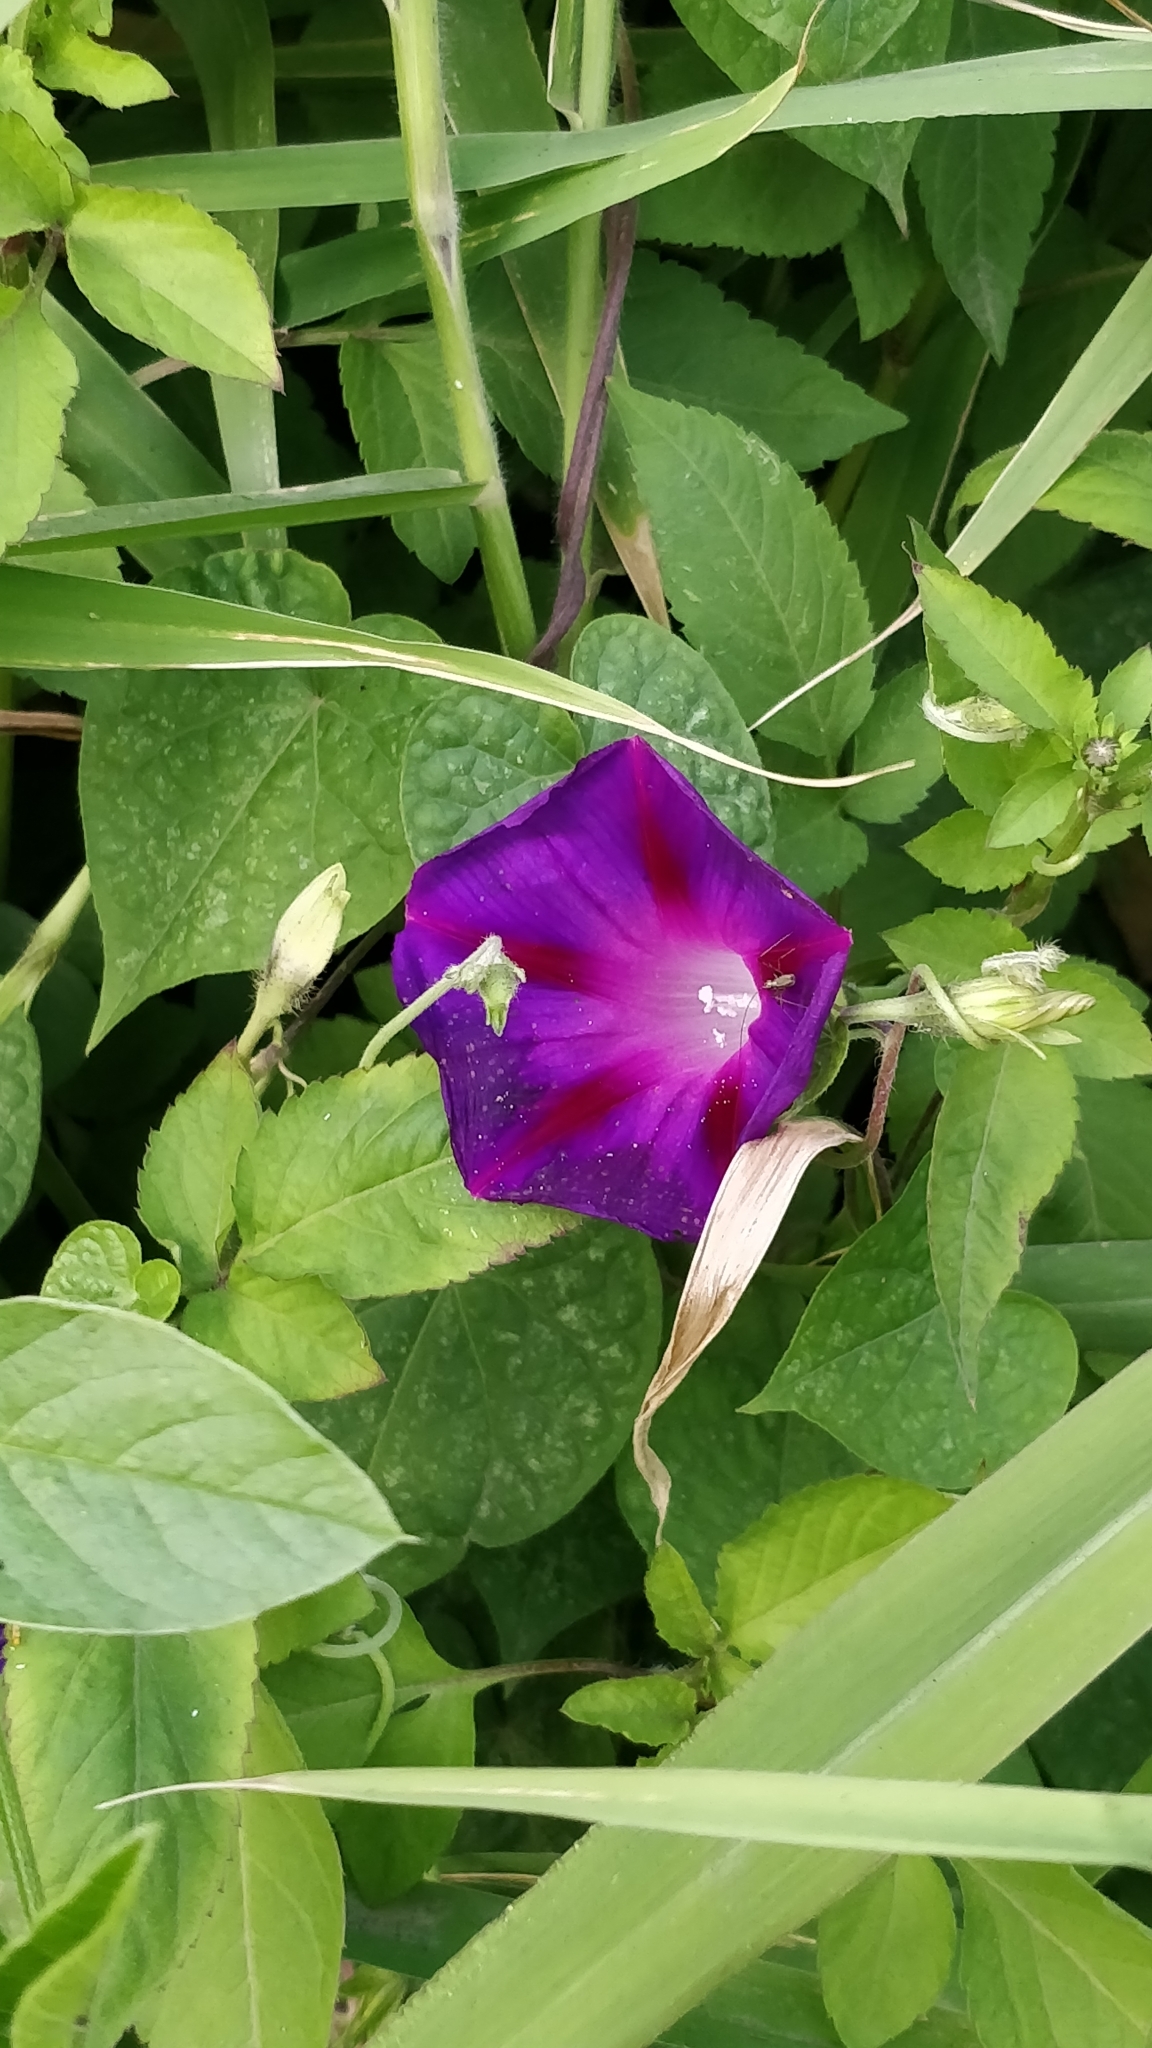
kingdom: Plantae
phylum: Tracheophyta
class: Magnoliopsida
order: Solanales
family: Convolvulaceae
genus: Ipomoea
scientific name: Ipomoea purpurea
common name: Common morning-glory
